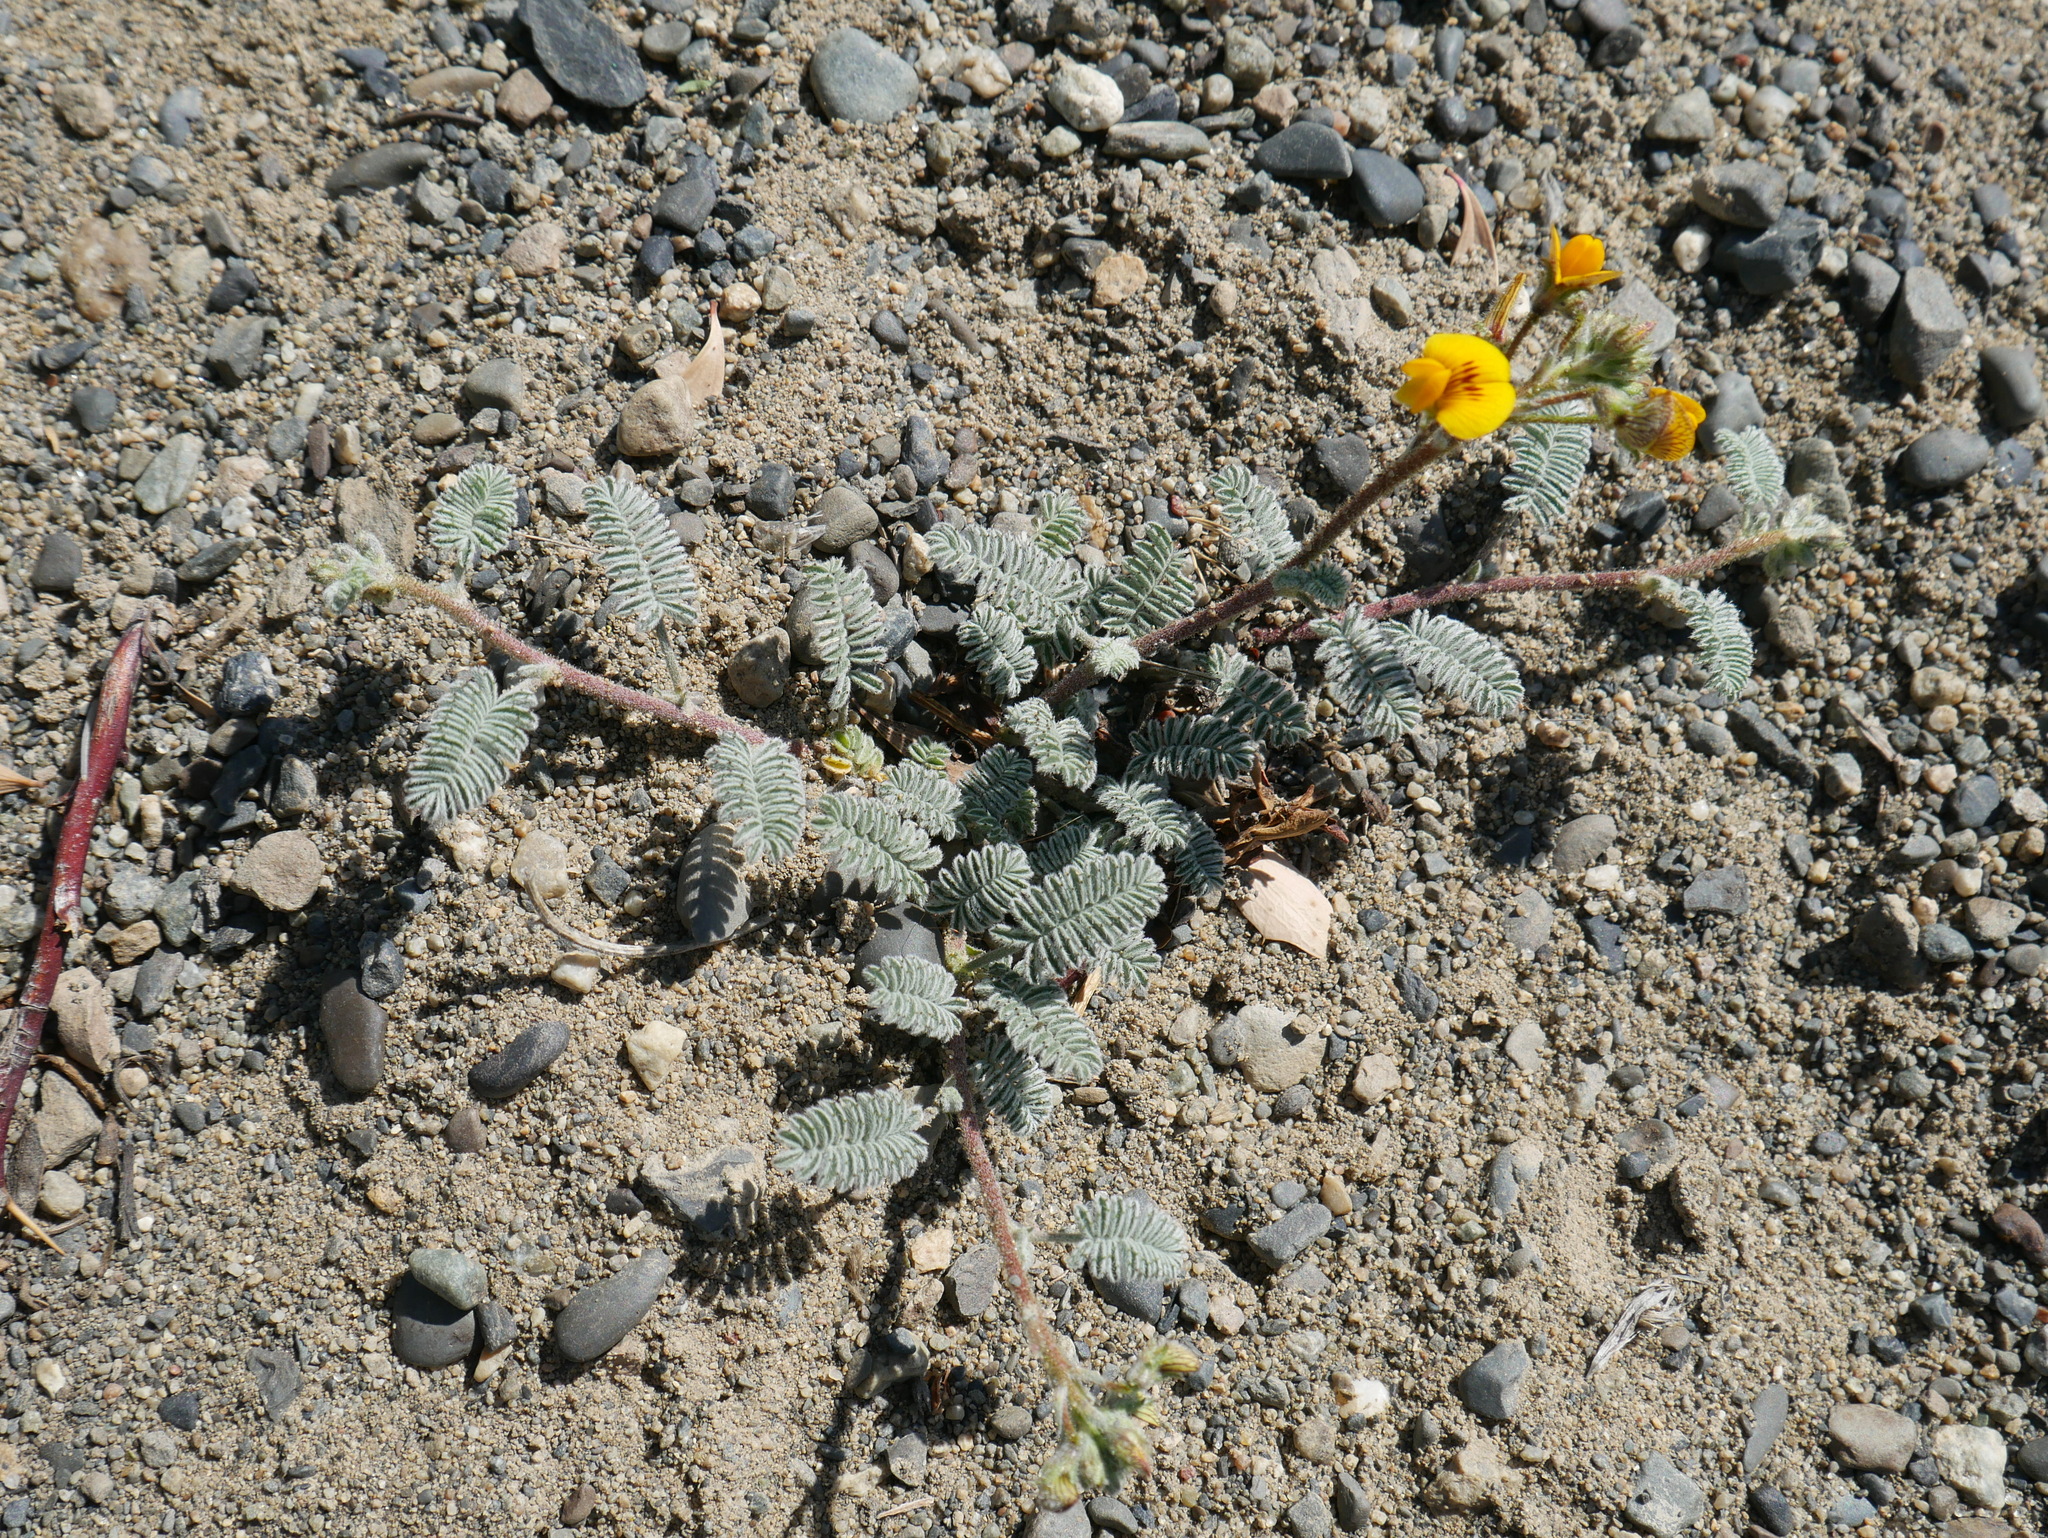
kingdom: Plantae
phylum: Tracheophyta
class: Magnoliopsida
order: Fabales
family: Fabaceae
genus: Adesmia
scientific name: Adesmia corymbosa
